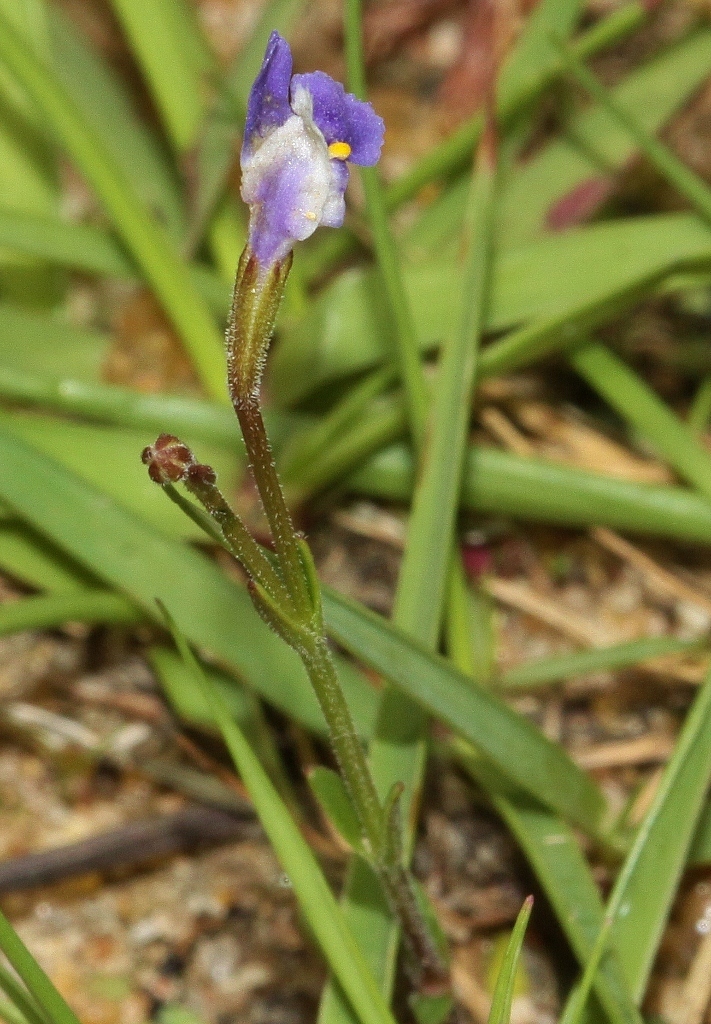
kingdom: Plantae
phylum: Tracheophyta
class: Magnoliopsida
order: Lamiales
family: Linderniaceae
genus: Linderniella
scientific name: Linderniella wilmsii
